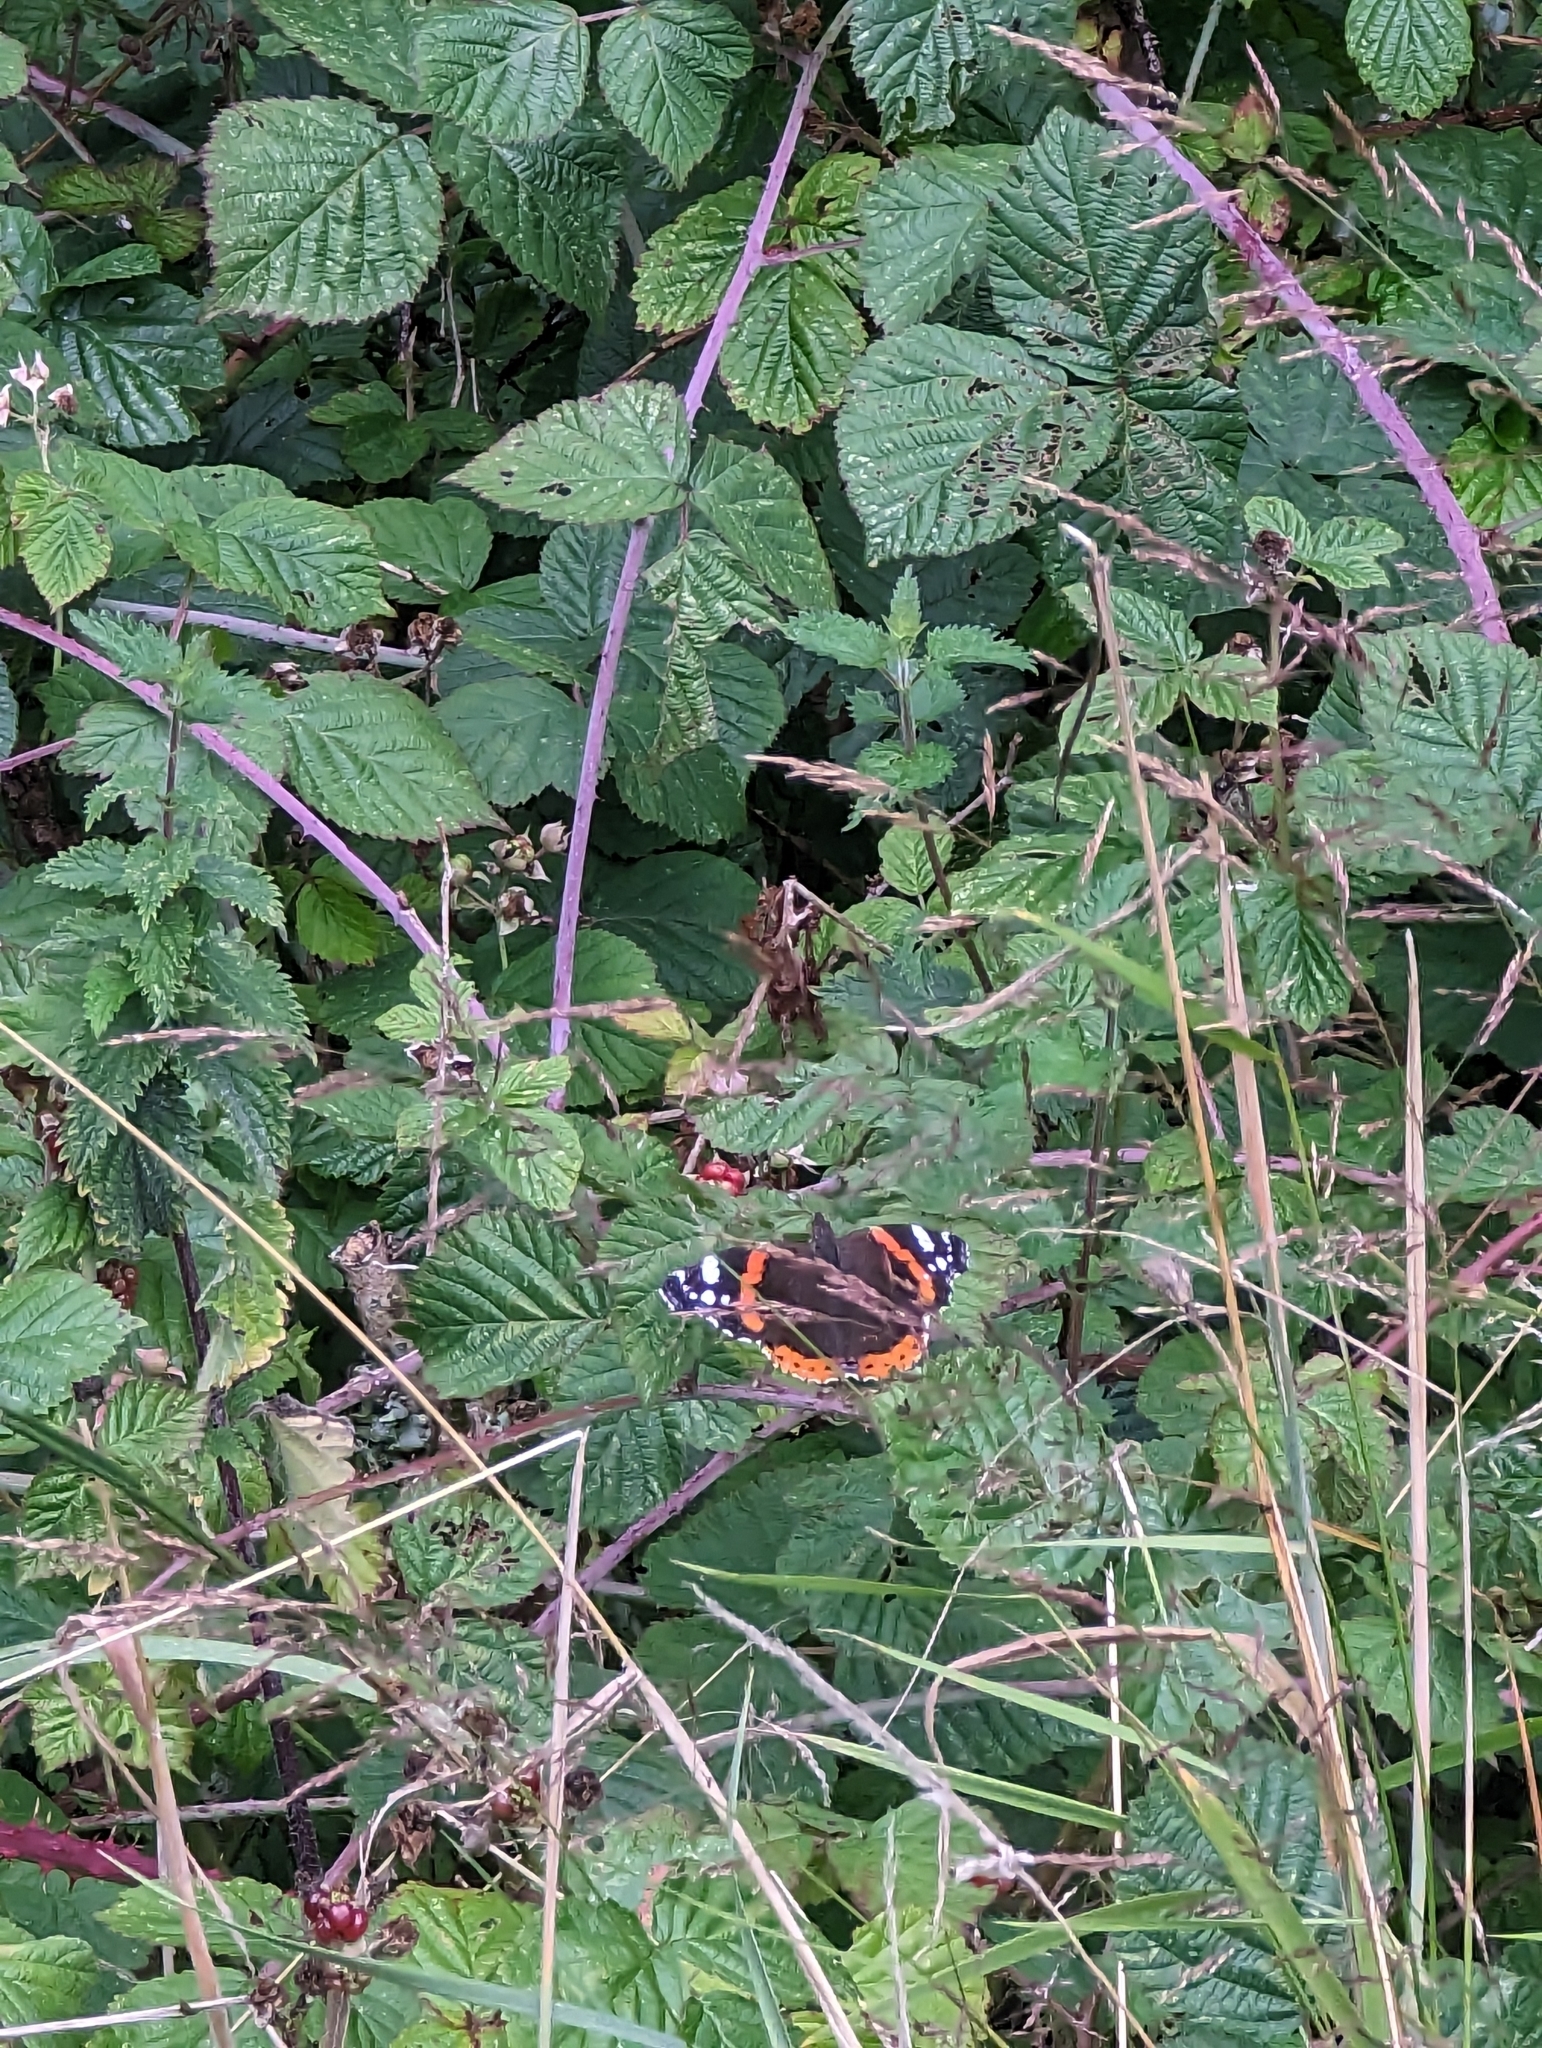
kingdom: Animalia
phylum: Arthropoda
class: Insecta
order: Lepidoptera
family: Nymphalidae
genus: Vanessa
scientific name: Vanessa atalanta
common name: Red admiral
